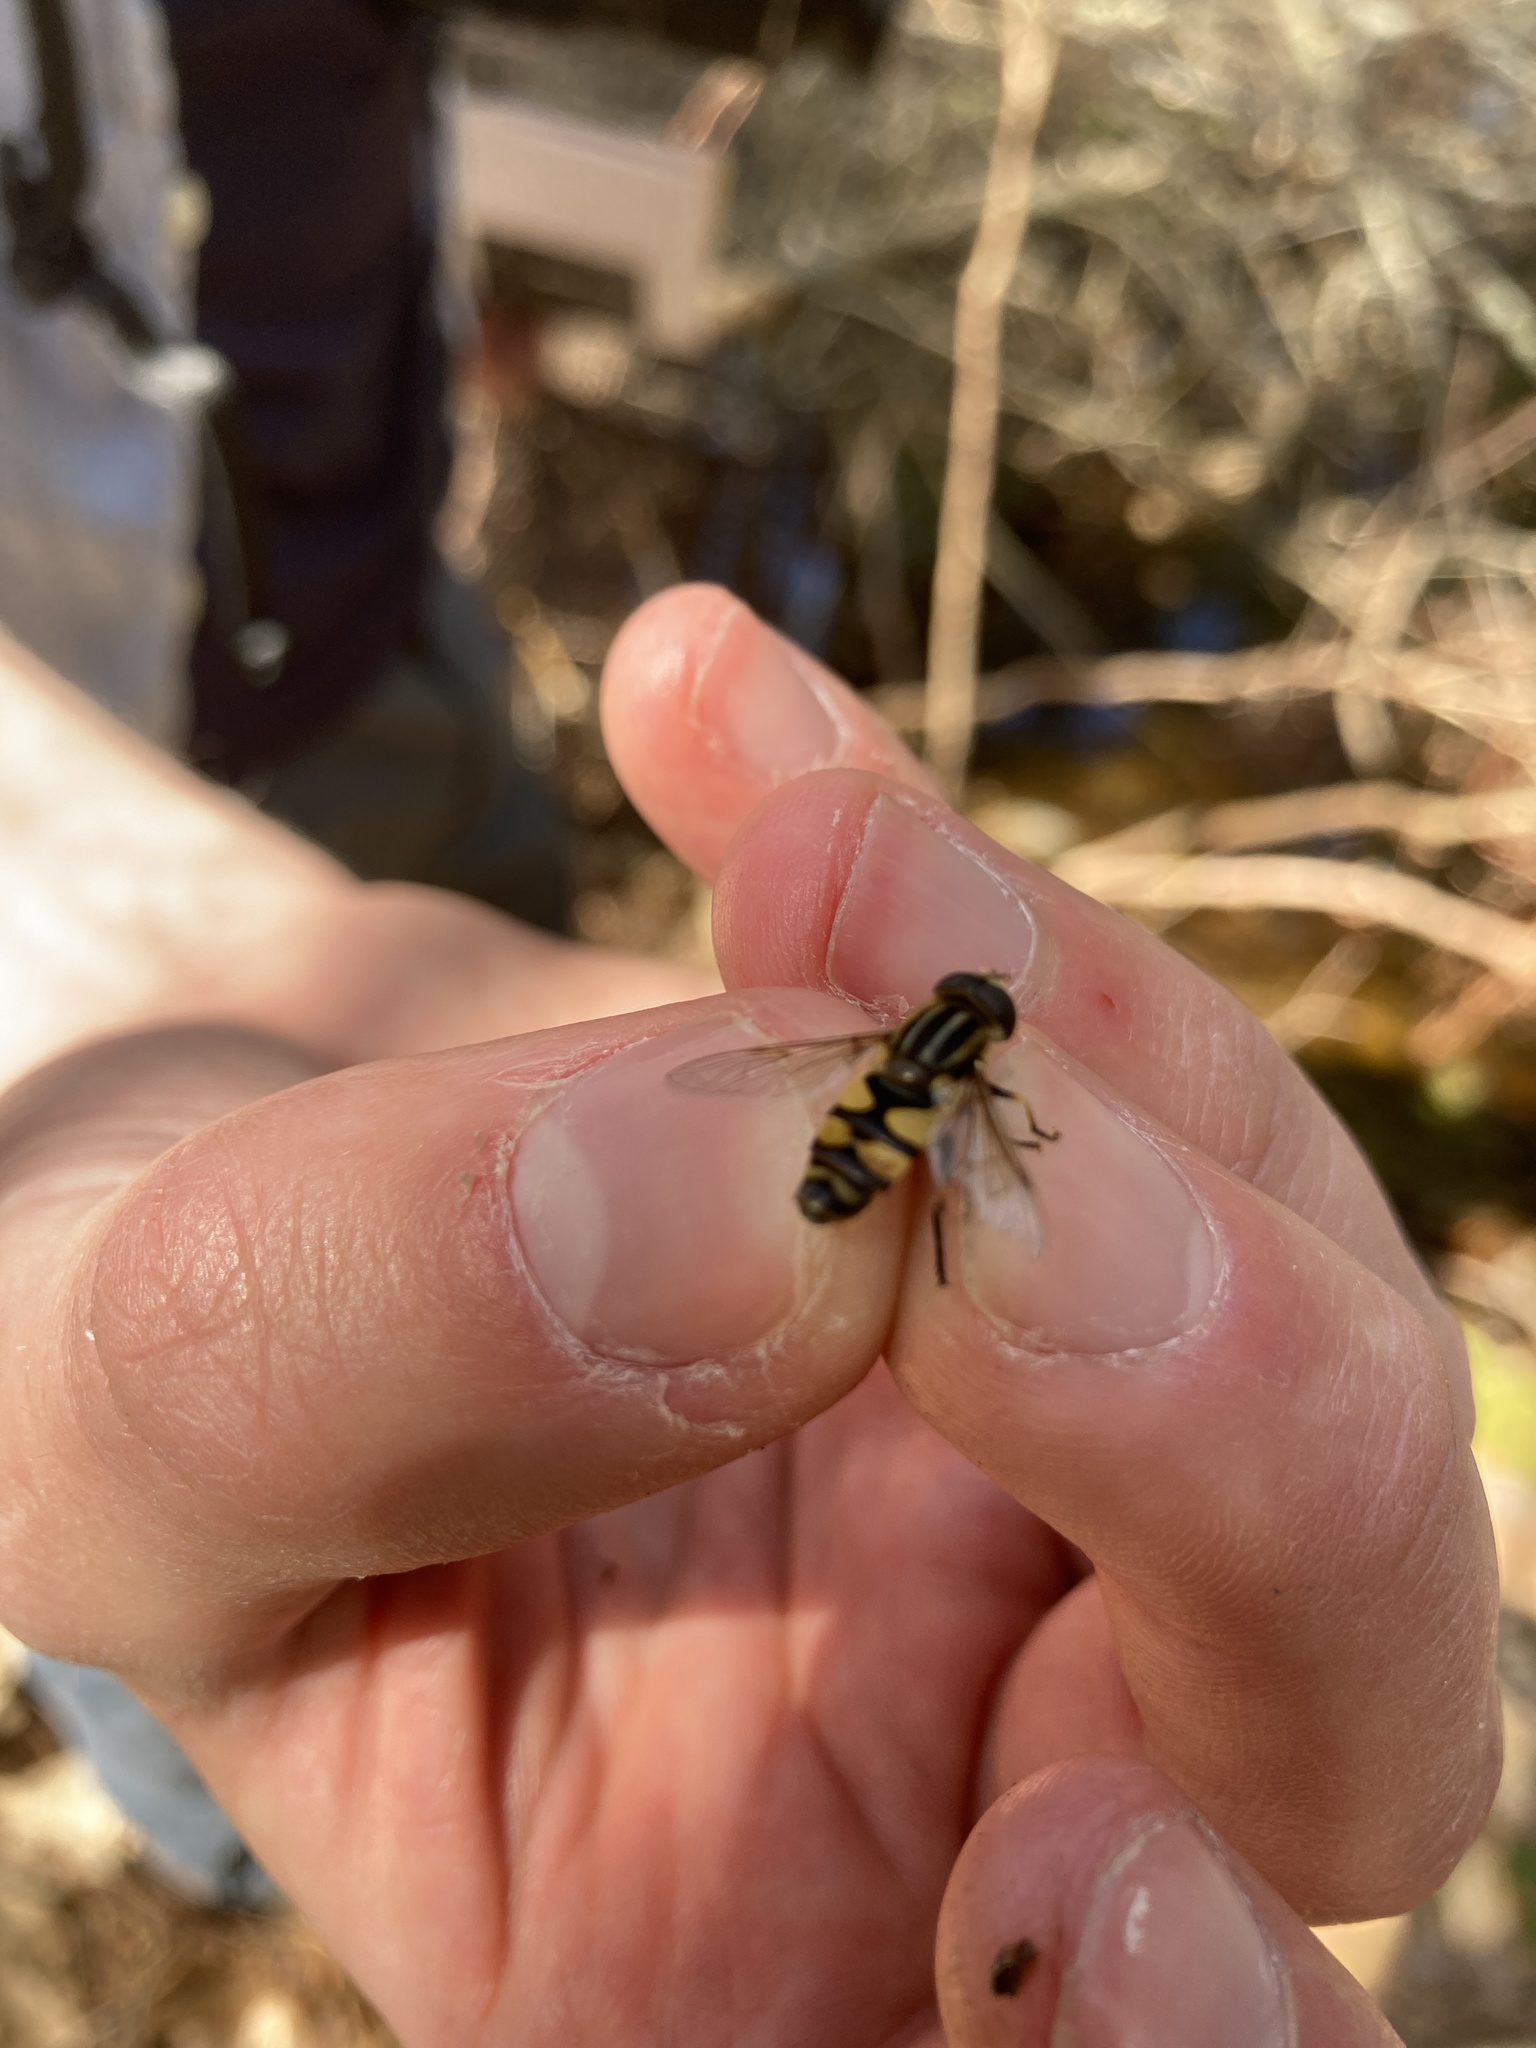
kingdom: Animalia
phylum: Arthropoda
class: Insecta
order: Diptera
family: Syrphidae
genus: Helophilus
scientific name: Helophilus fasciatus
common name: Narrow-headed marsh fly
